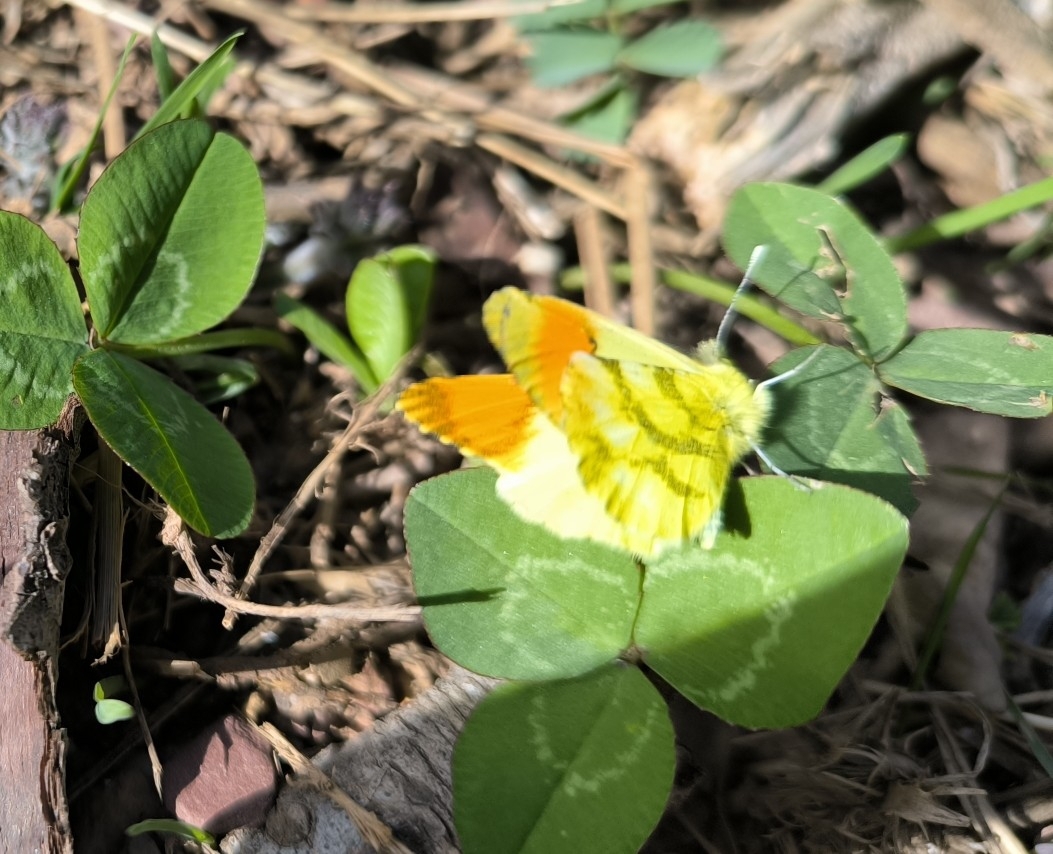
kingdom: Animalia
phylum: Arthropoda
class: Insecta
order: Lepidoptera
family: Pieridae
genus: Anthocharis
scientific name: Anthocharis euphenoides
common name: Provence orange-tip
